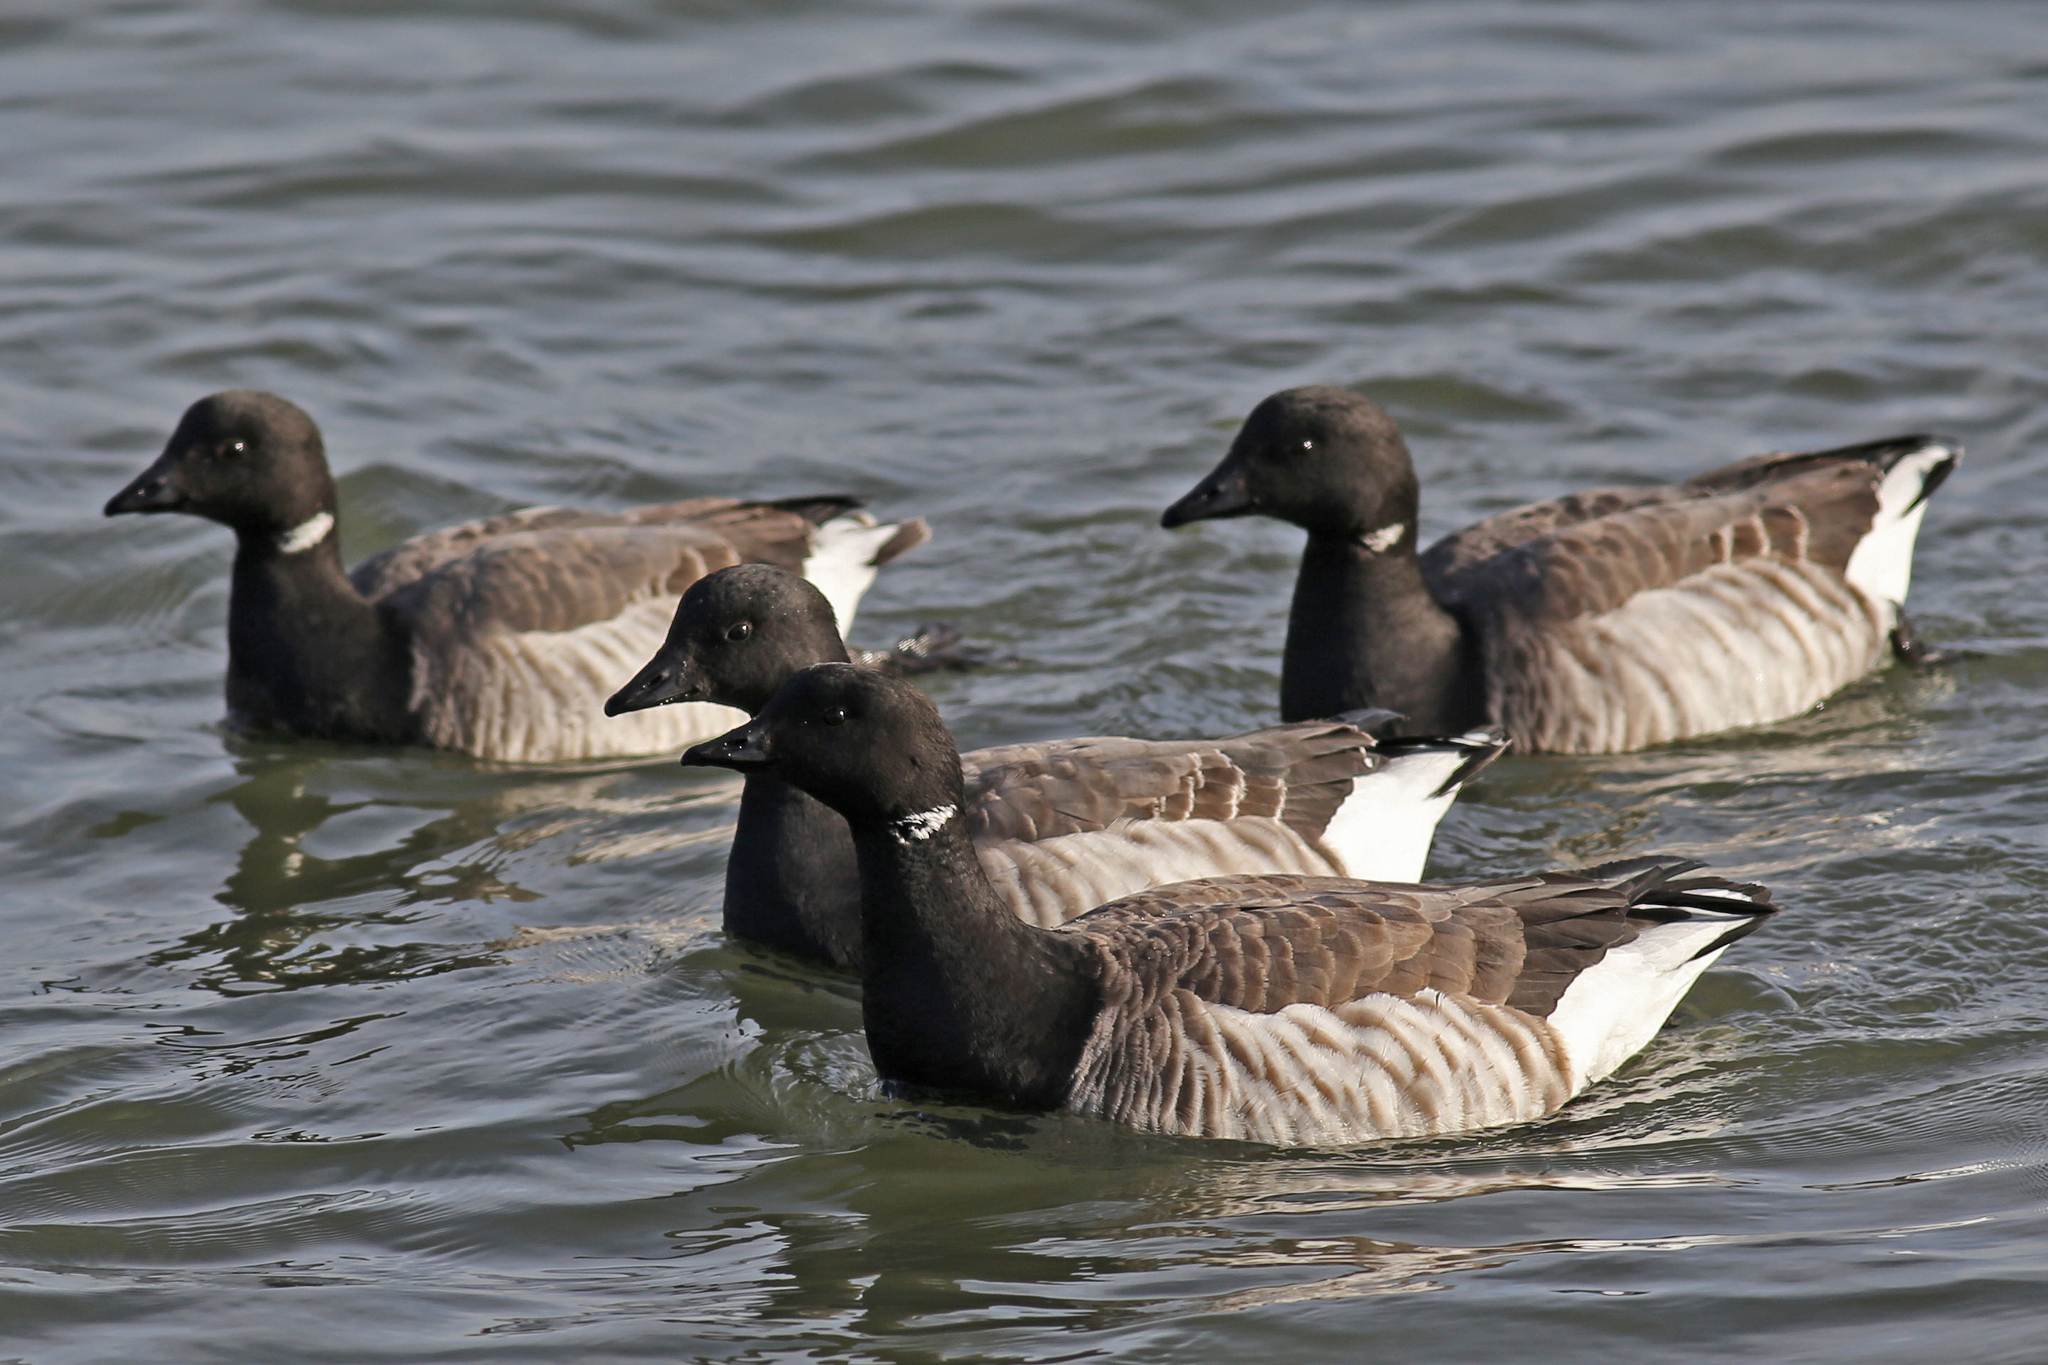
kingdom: Animalia
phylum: Chordata
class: Aves
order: Anseriformes
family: Anatidae
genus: Branta
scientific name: Branta bernicla
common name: Brant goose
